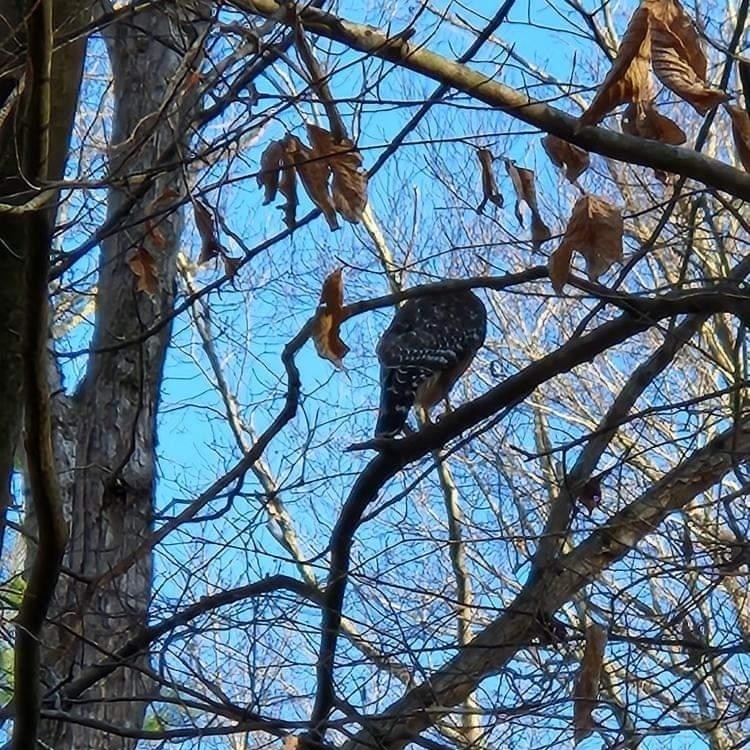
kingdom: Animalia
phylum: Chordata
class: Aves
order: Accipitriformes
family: Accipitridae
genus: Buteo
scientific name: Buteo lineatus
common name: Red-shouldered hawk
